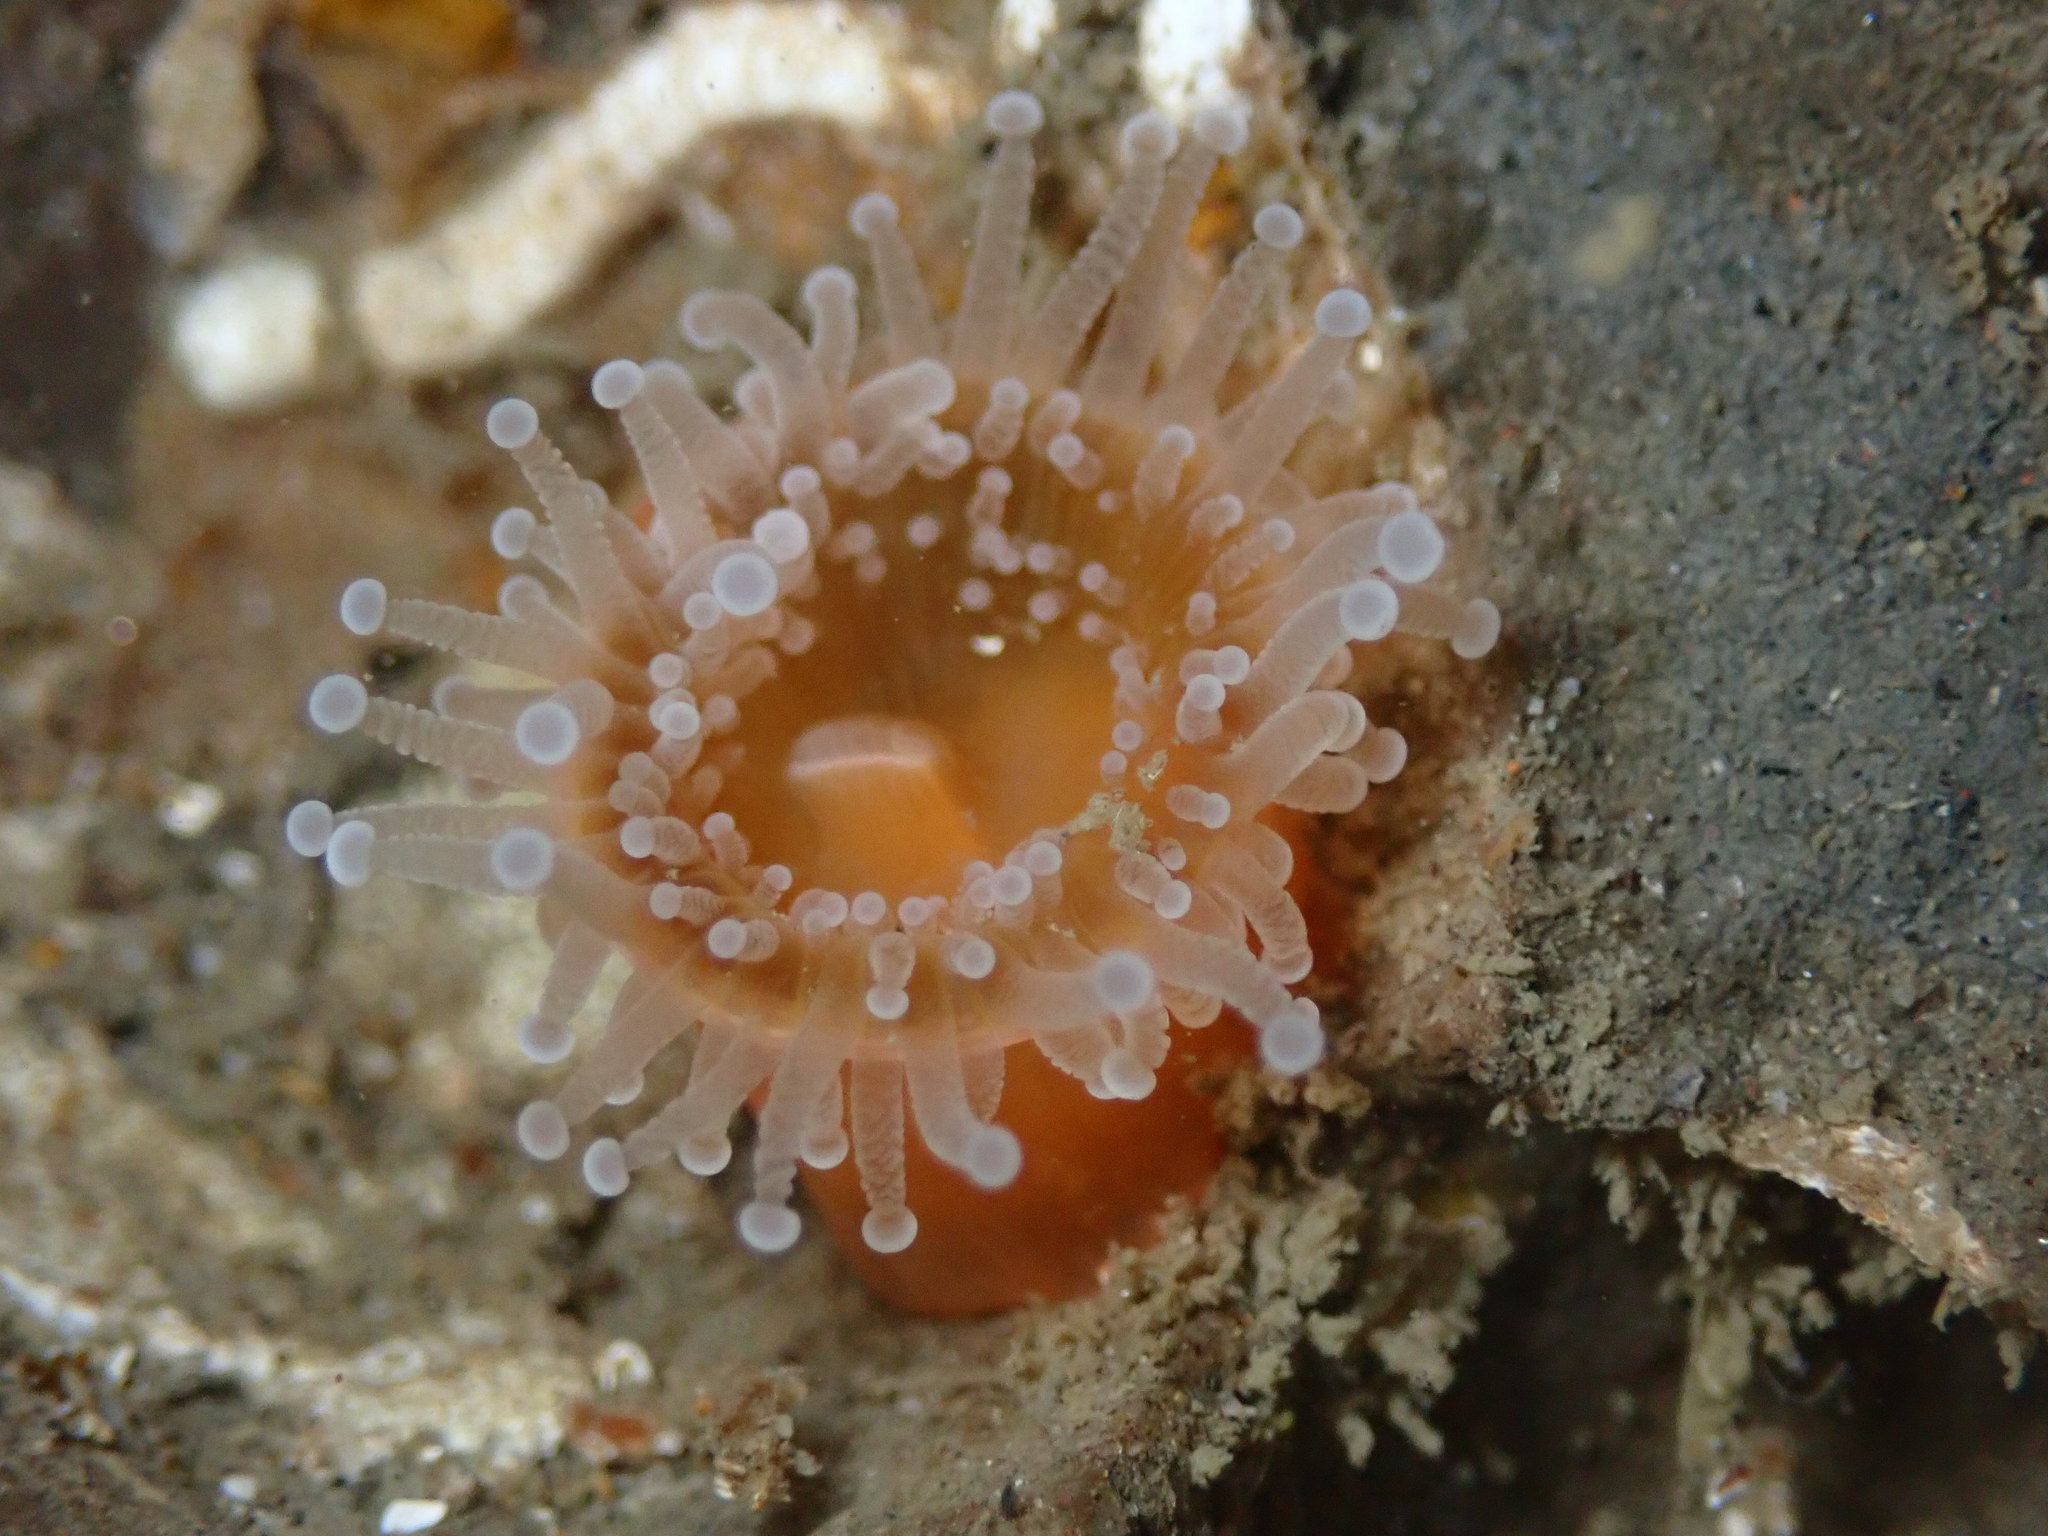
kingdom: Animalia
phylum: Cnidaria
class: Anthozoa
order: Corallimorpharia
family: Corallimorphidae
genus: Corynactis
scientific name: Corynactis californica
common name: Strawberry corallimorpharian
